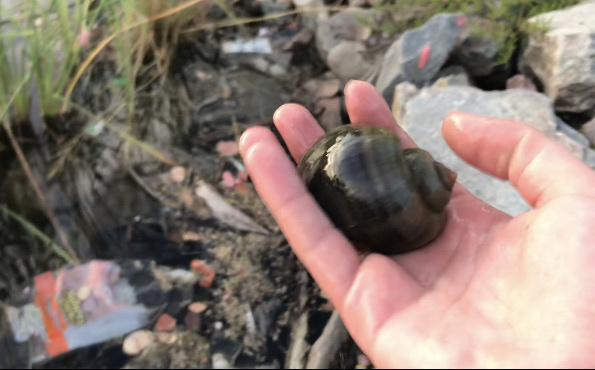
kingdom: Animalia
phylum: Mollusca
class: Gastropoda
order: Architaenioglossa
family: Ampullariidae
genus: Pomacea
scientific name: Pomacea canaliculata
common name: Channeled applesnail
